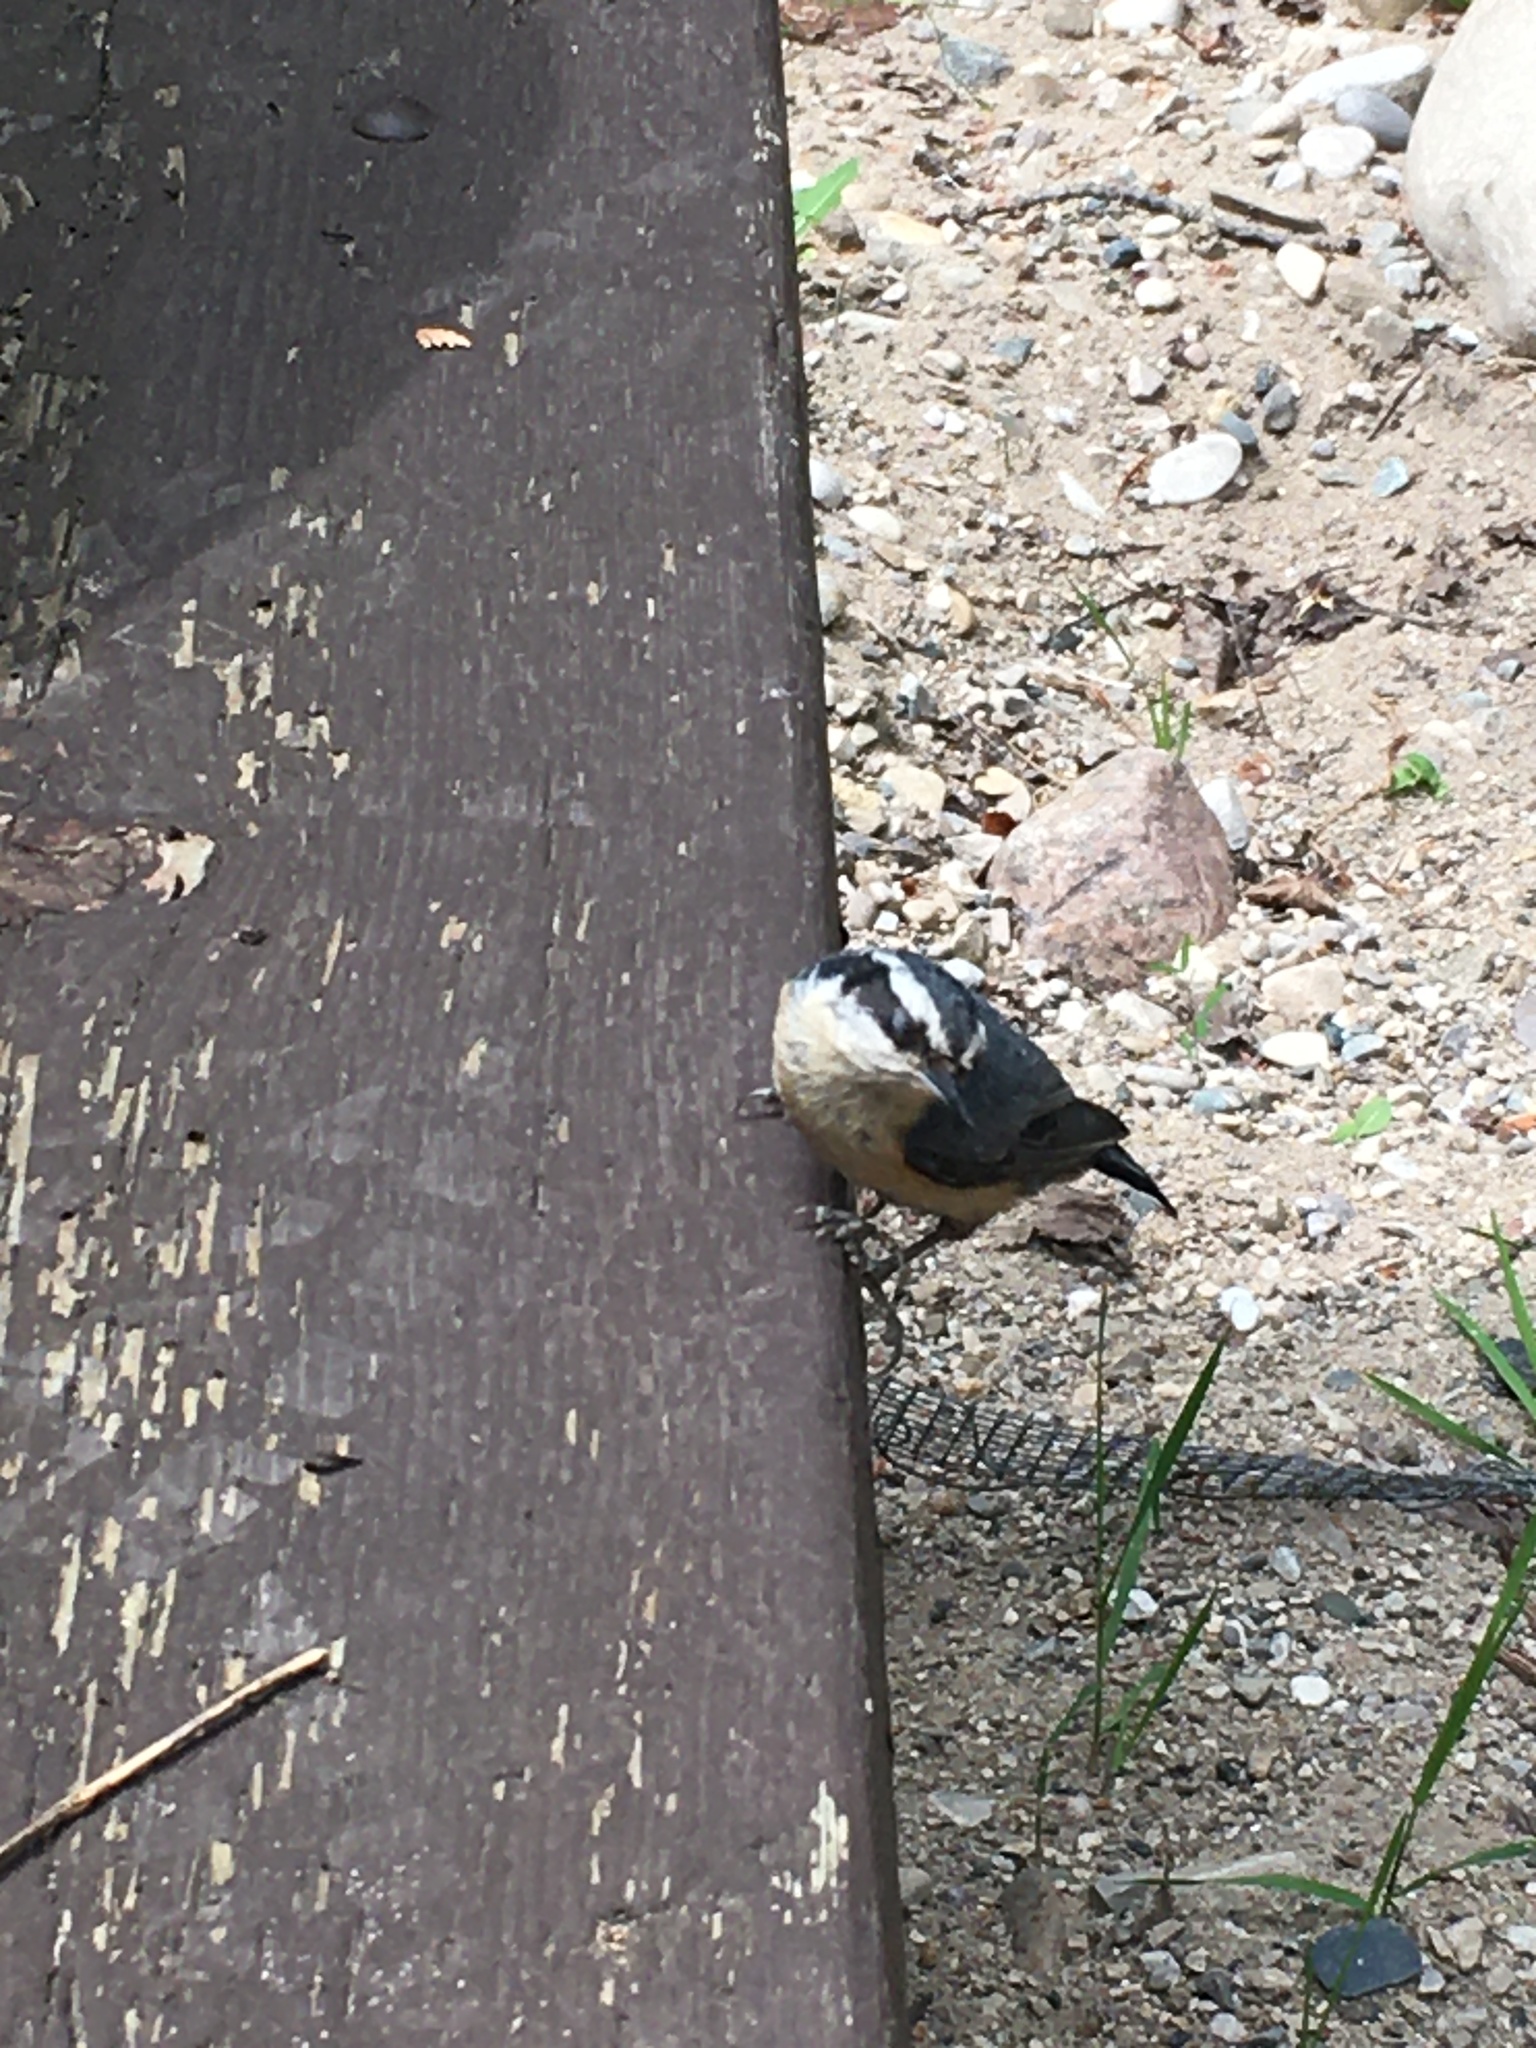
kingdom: Animalia
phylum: Chordata
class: Aves
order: Passeriformes
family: Sittidae
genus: Sitta
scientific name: Sitta canadensis
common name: Red-breasted nuthatch
